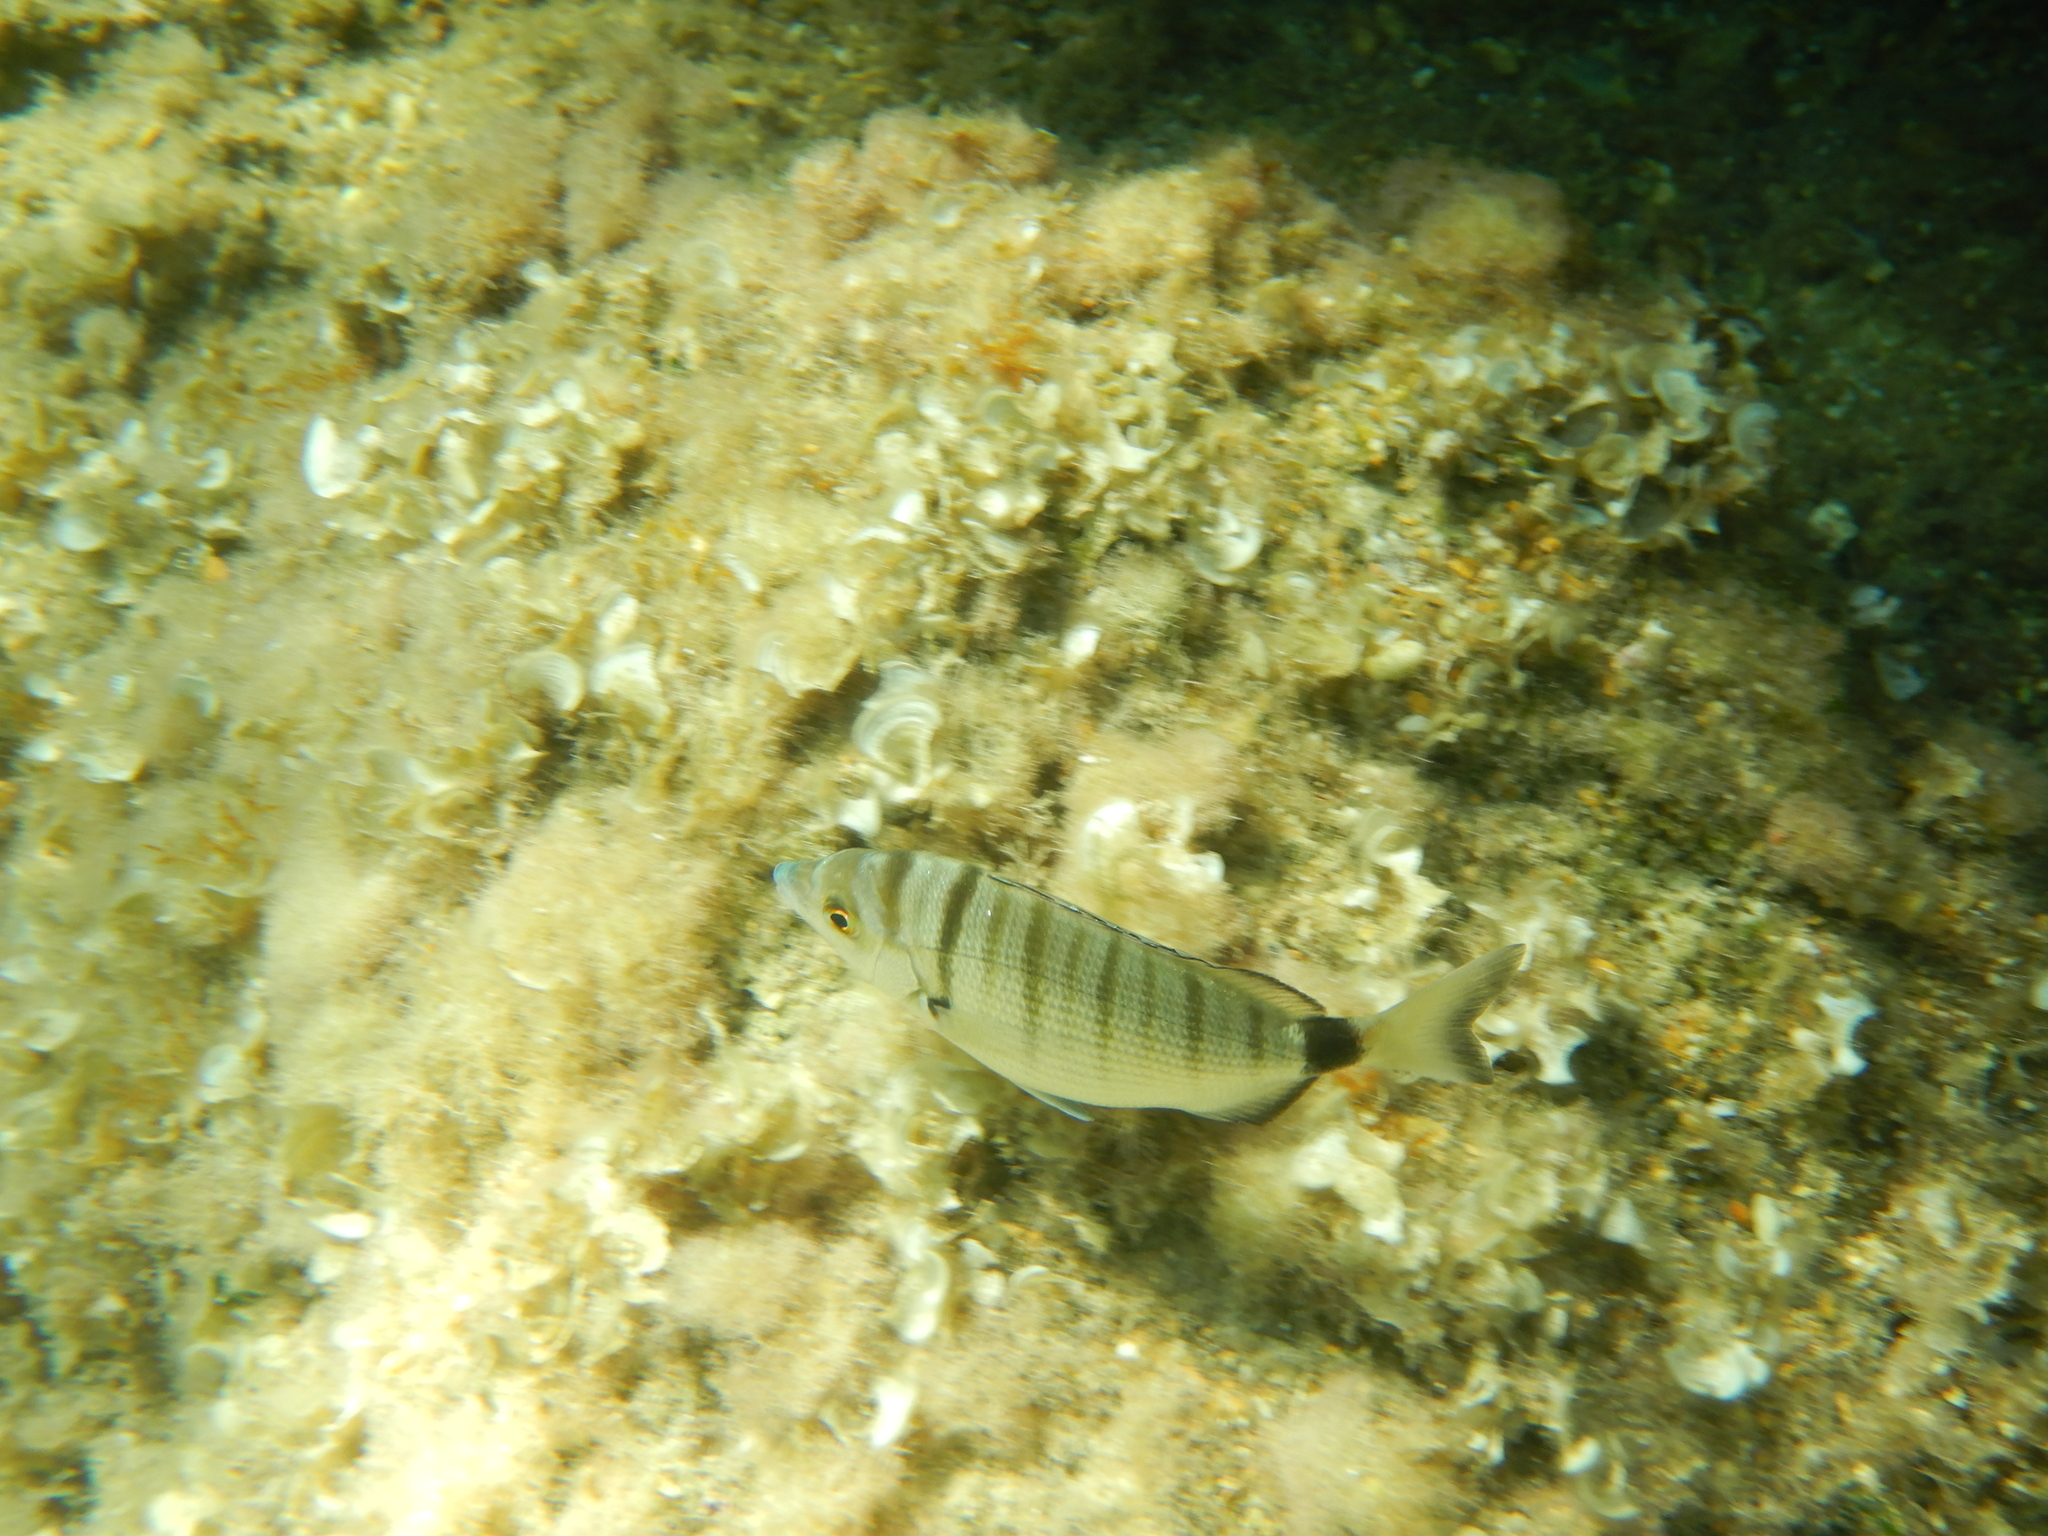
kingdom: Animalia
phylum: Chordata
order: Perciformes
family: Sparidae
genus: Diplodus
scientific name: Diplodus puntazzo
